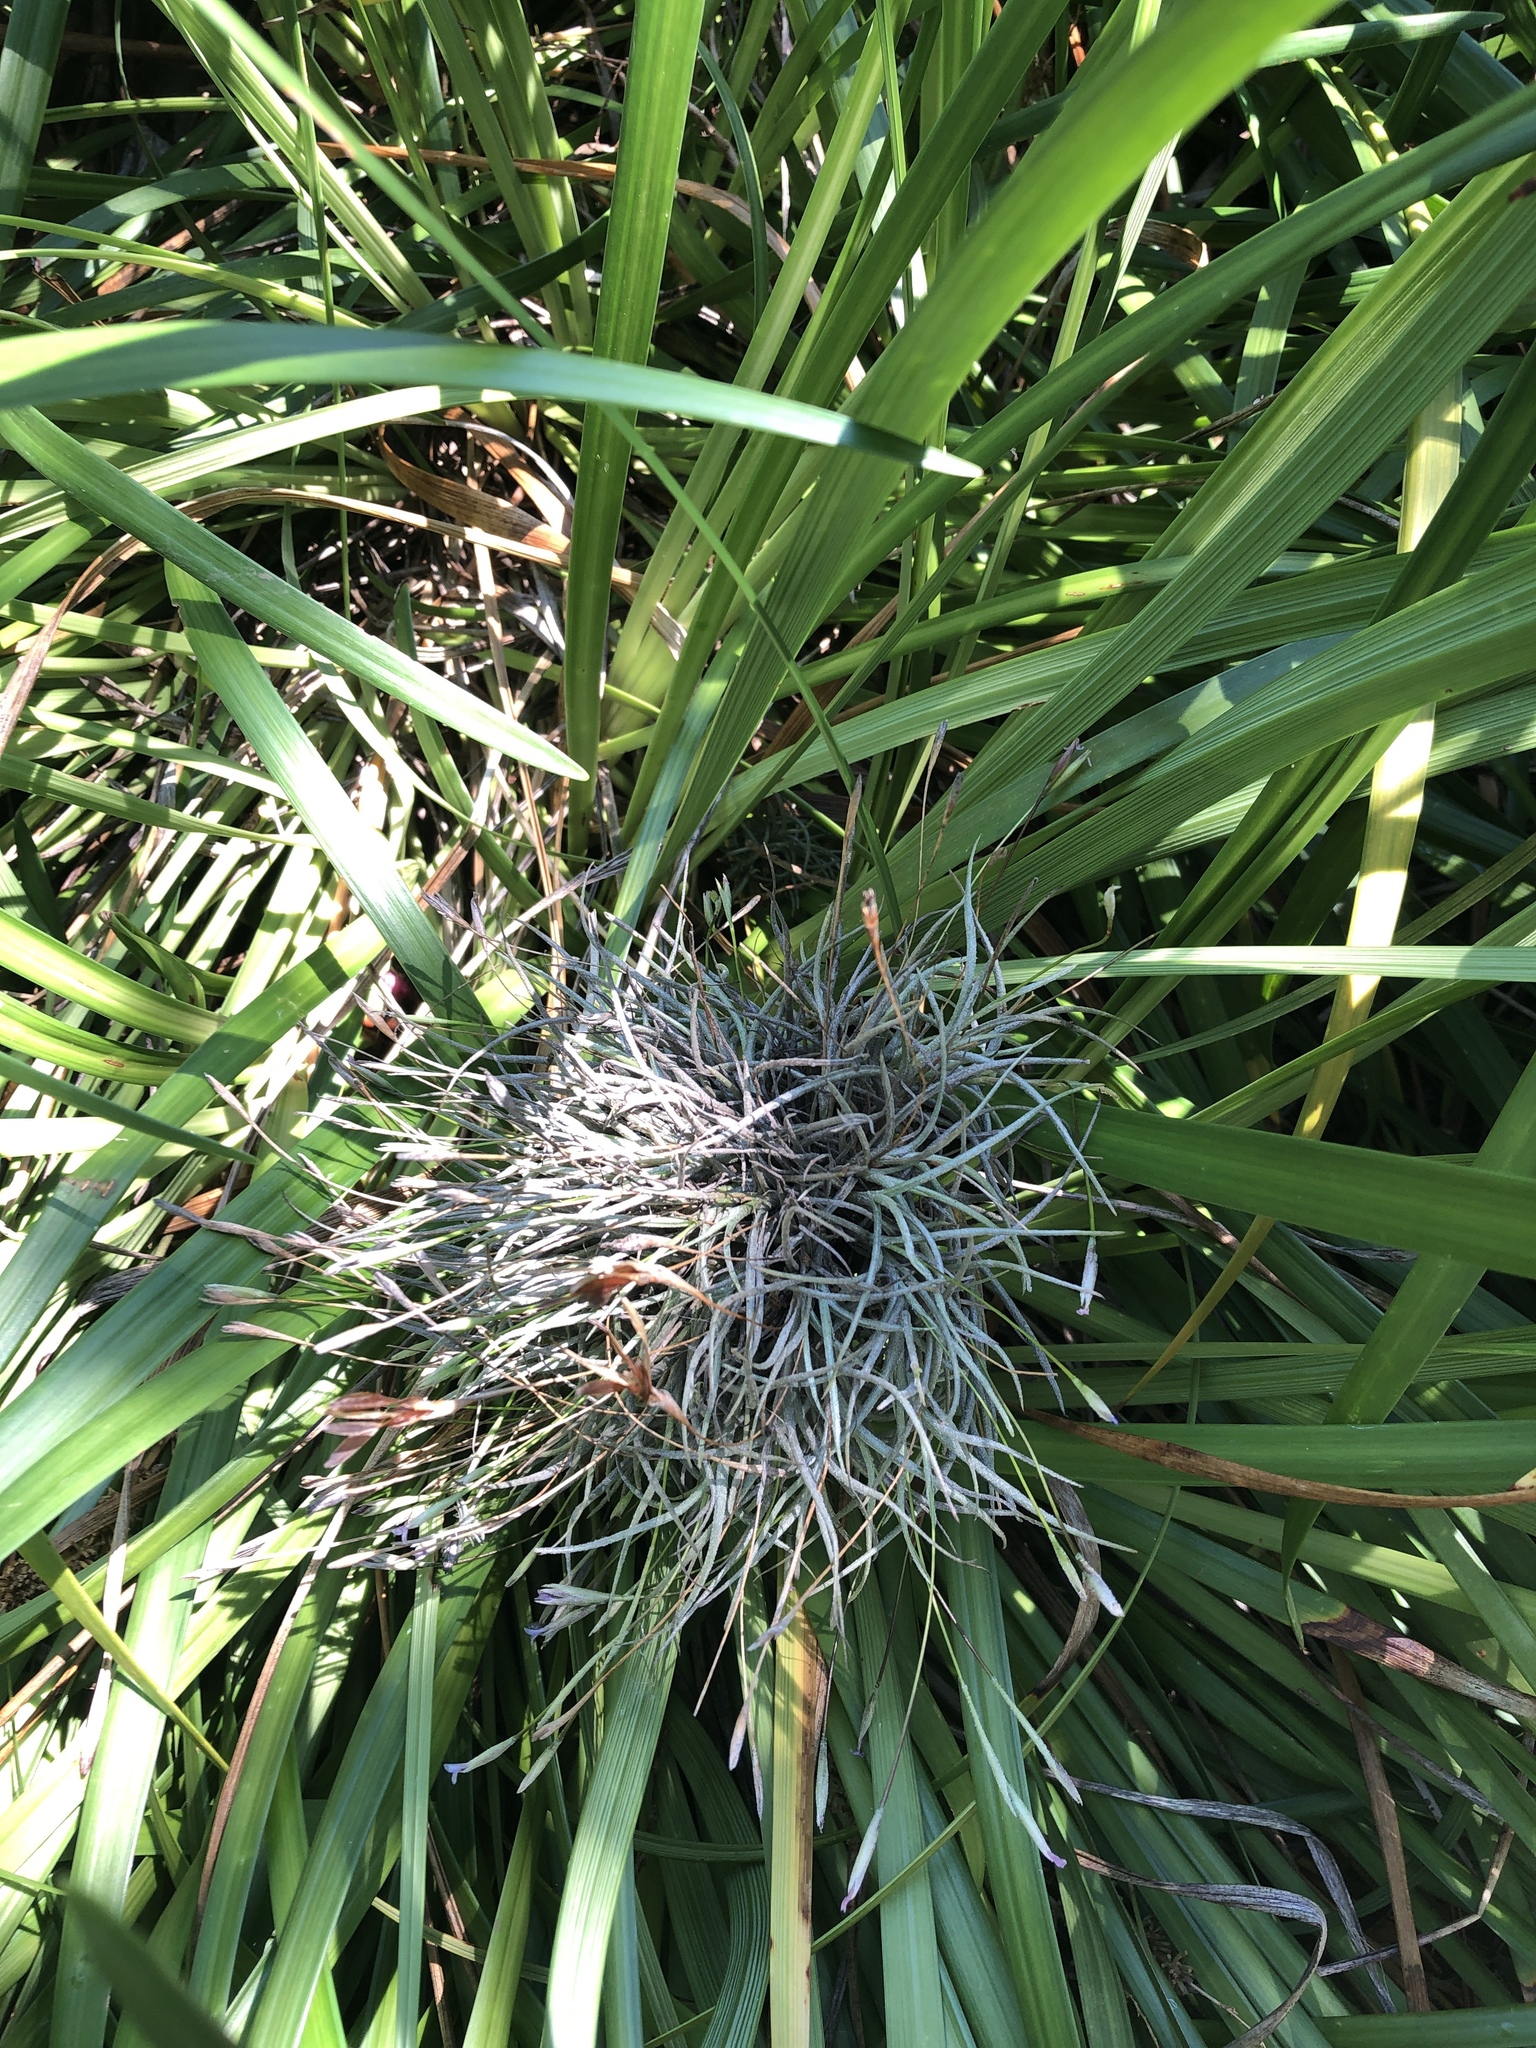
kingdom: Plantae
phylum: Tracheophyta
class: Liliopsida
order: Poales
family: Bromeliaceae
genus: Tillandsia
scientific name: Tillandsia recurvata
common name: Small ballmoss
